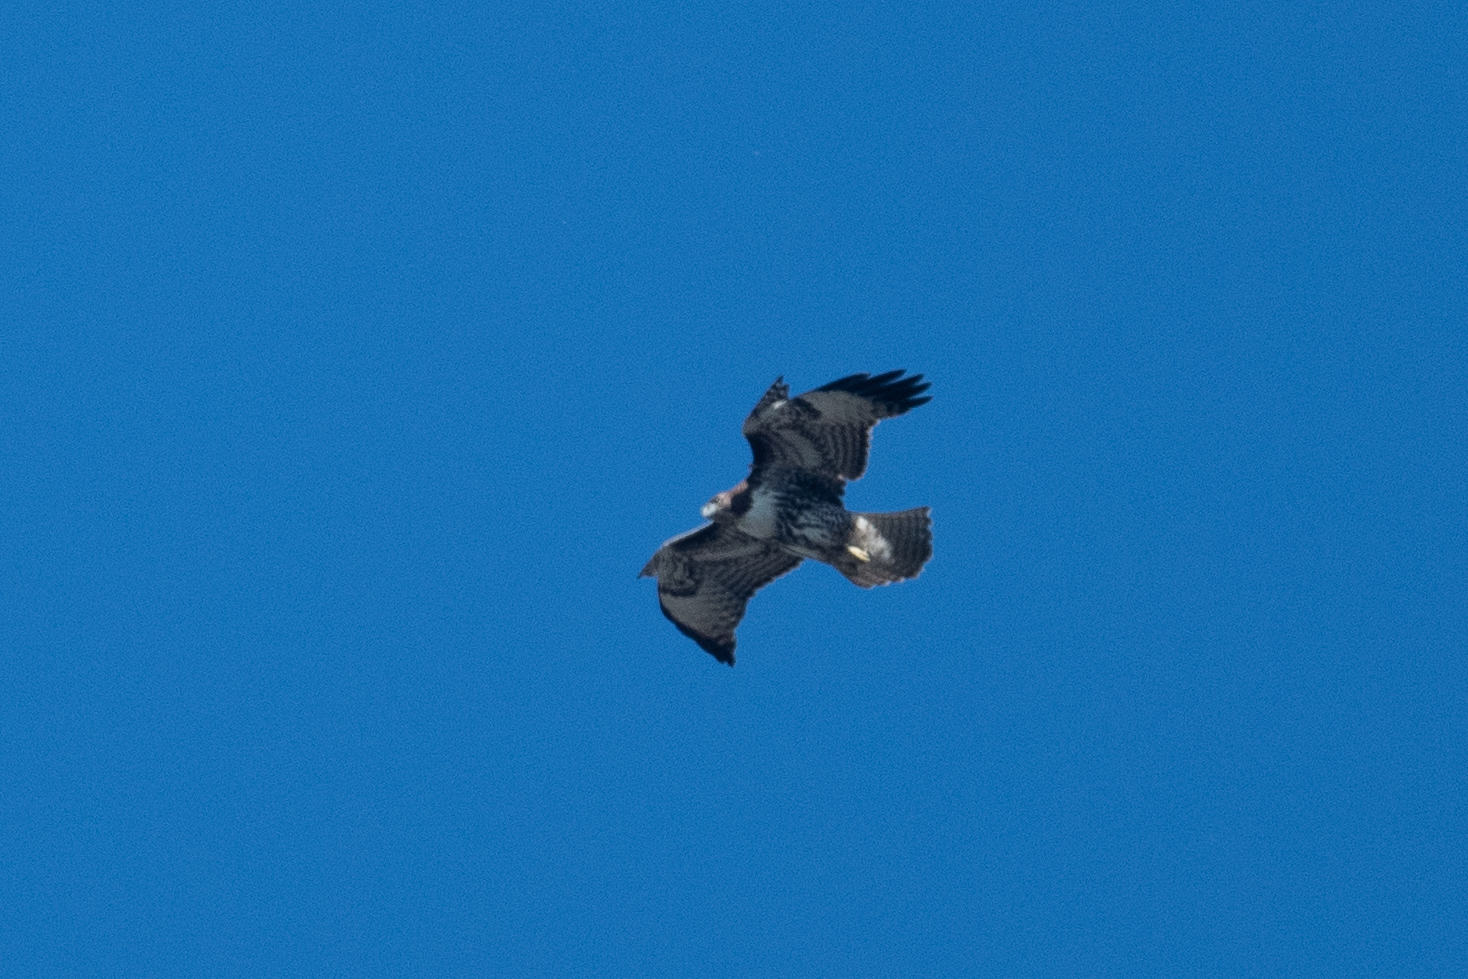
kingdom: Animalia
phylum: Chordata
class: Aves
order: Accipitriformes
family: Accipitridae
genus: Buteo
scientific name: Buteo jamaicensis
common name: Red-tailed hawk
